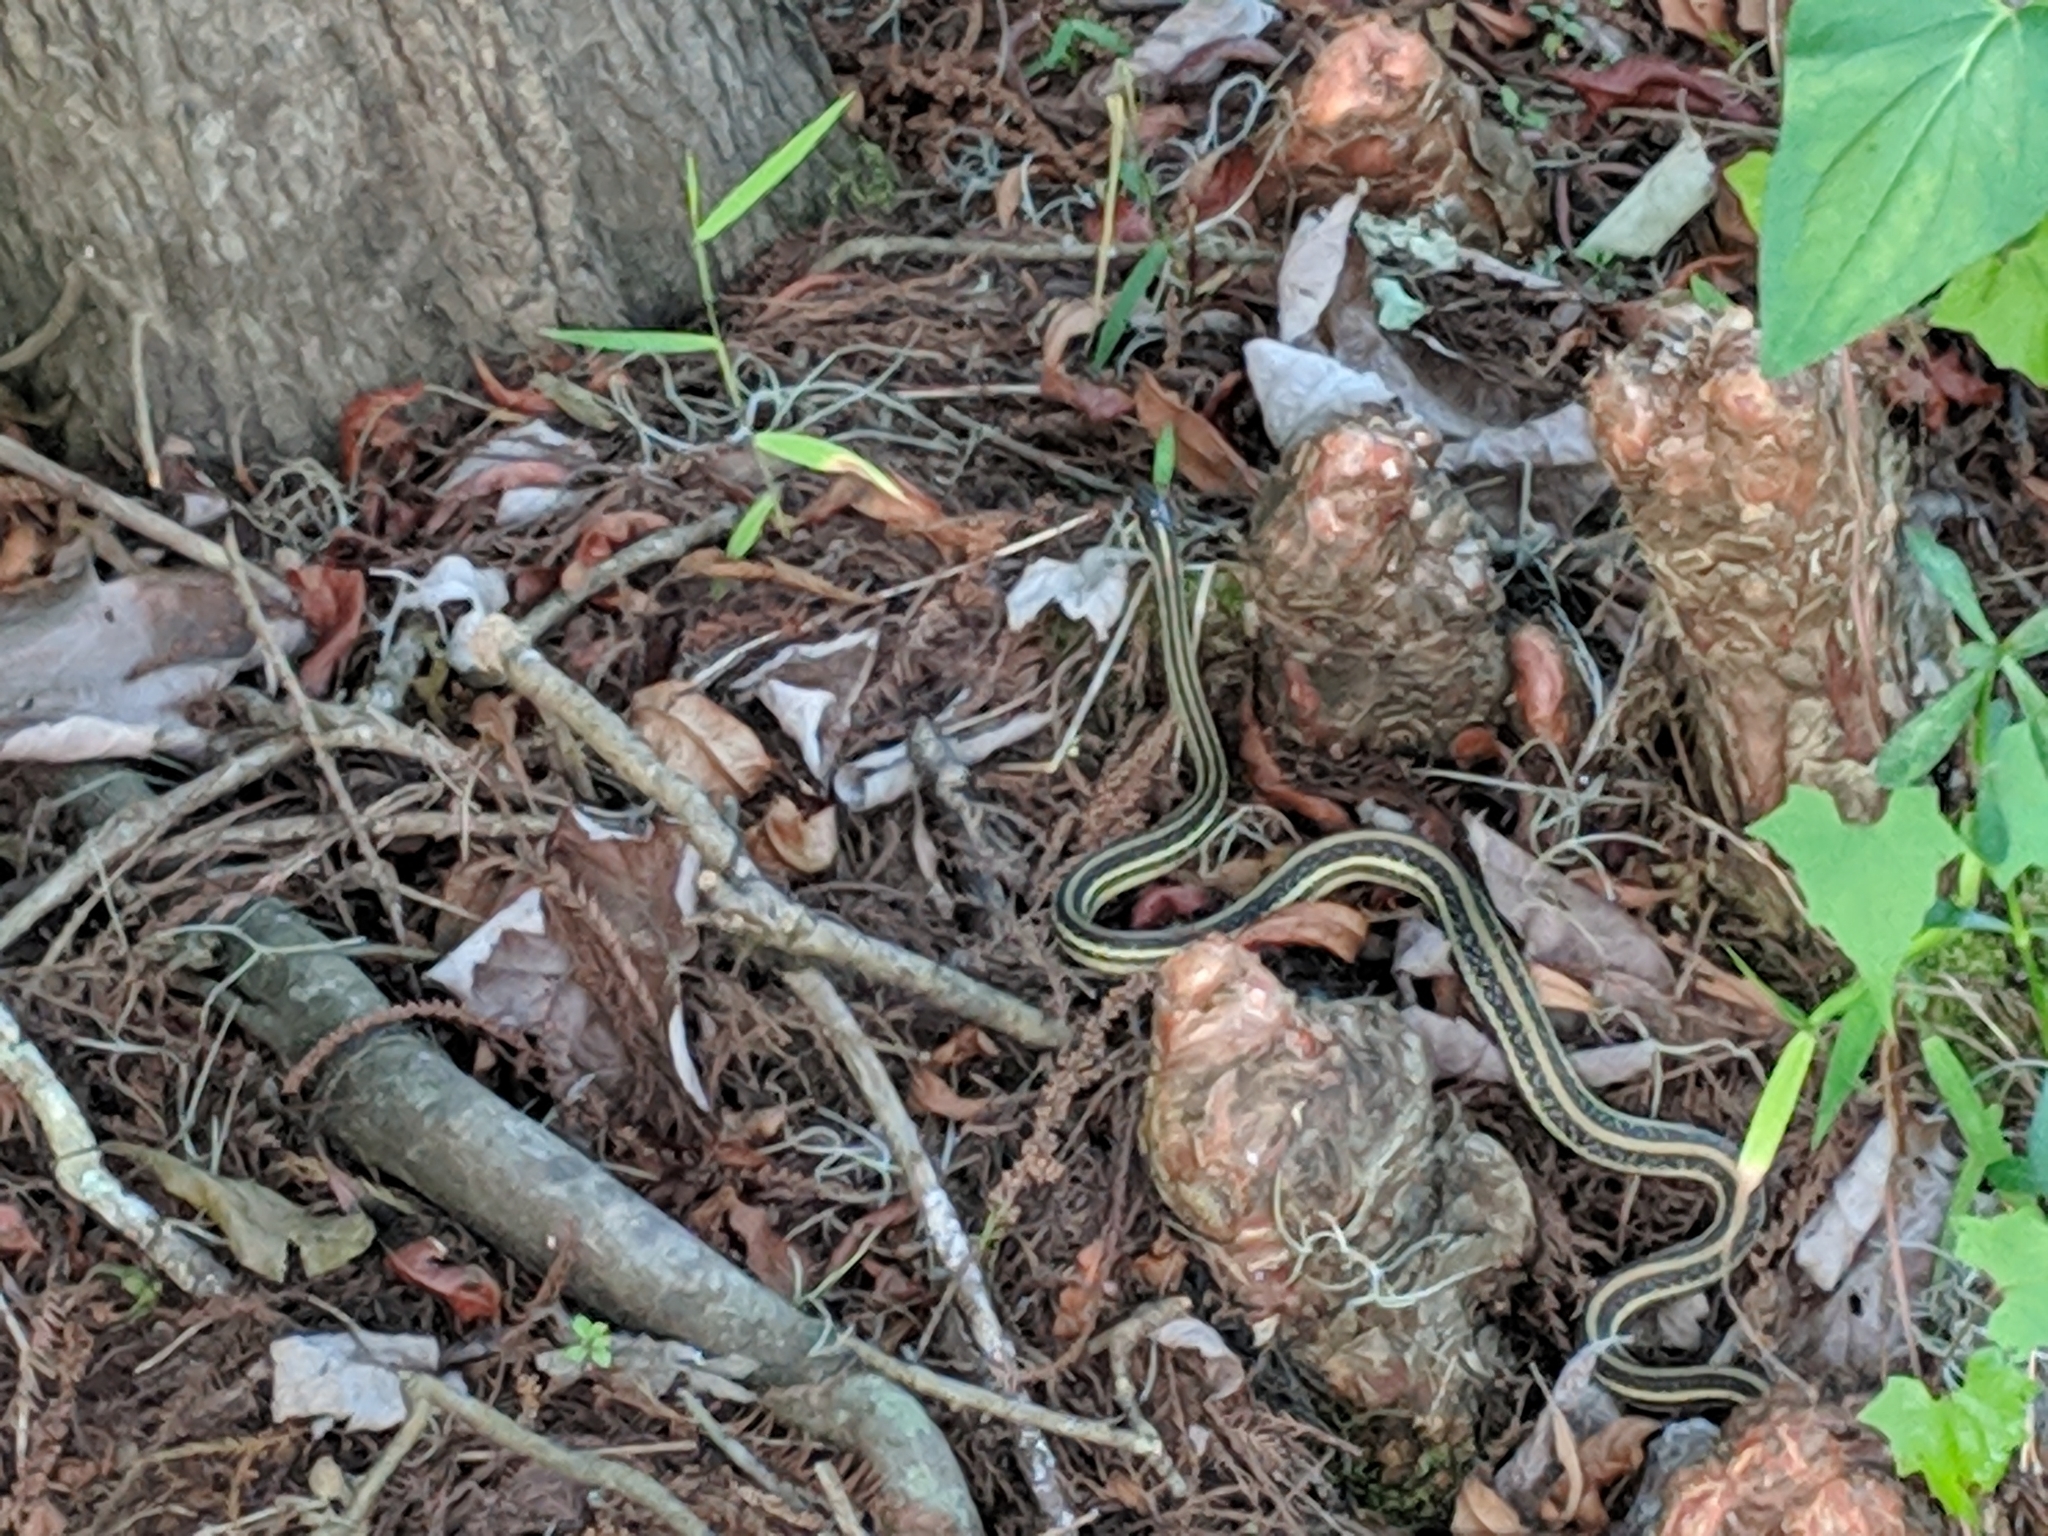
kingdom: Animalia
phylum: Chordata
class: Squamata
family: Colubridae
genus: Thamnophis
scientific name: Thamnophis proximus
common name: Western ribbon snake
